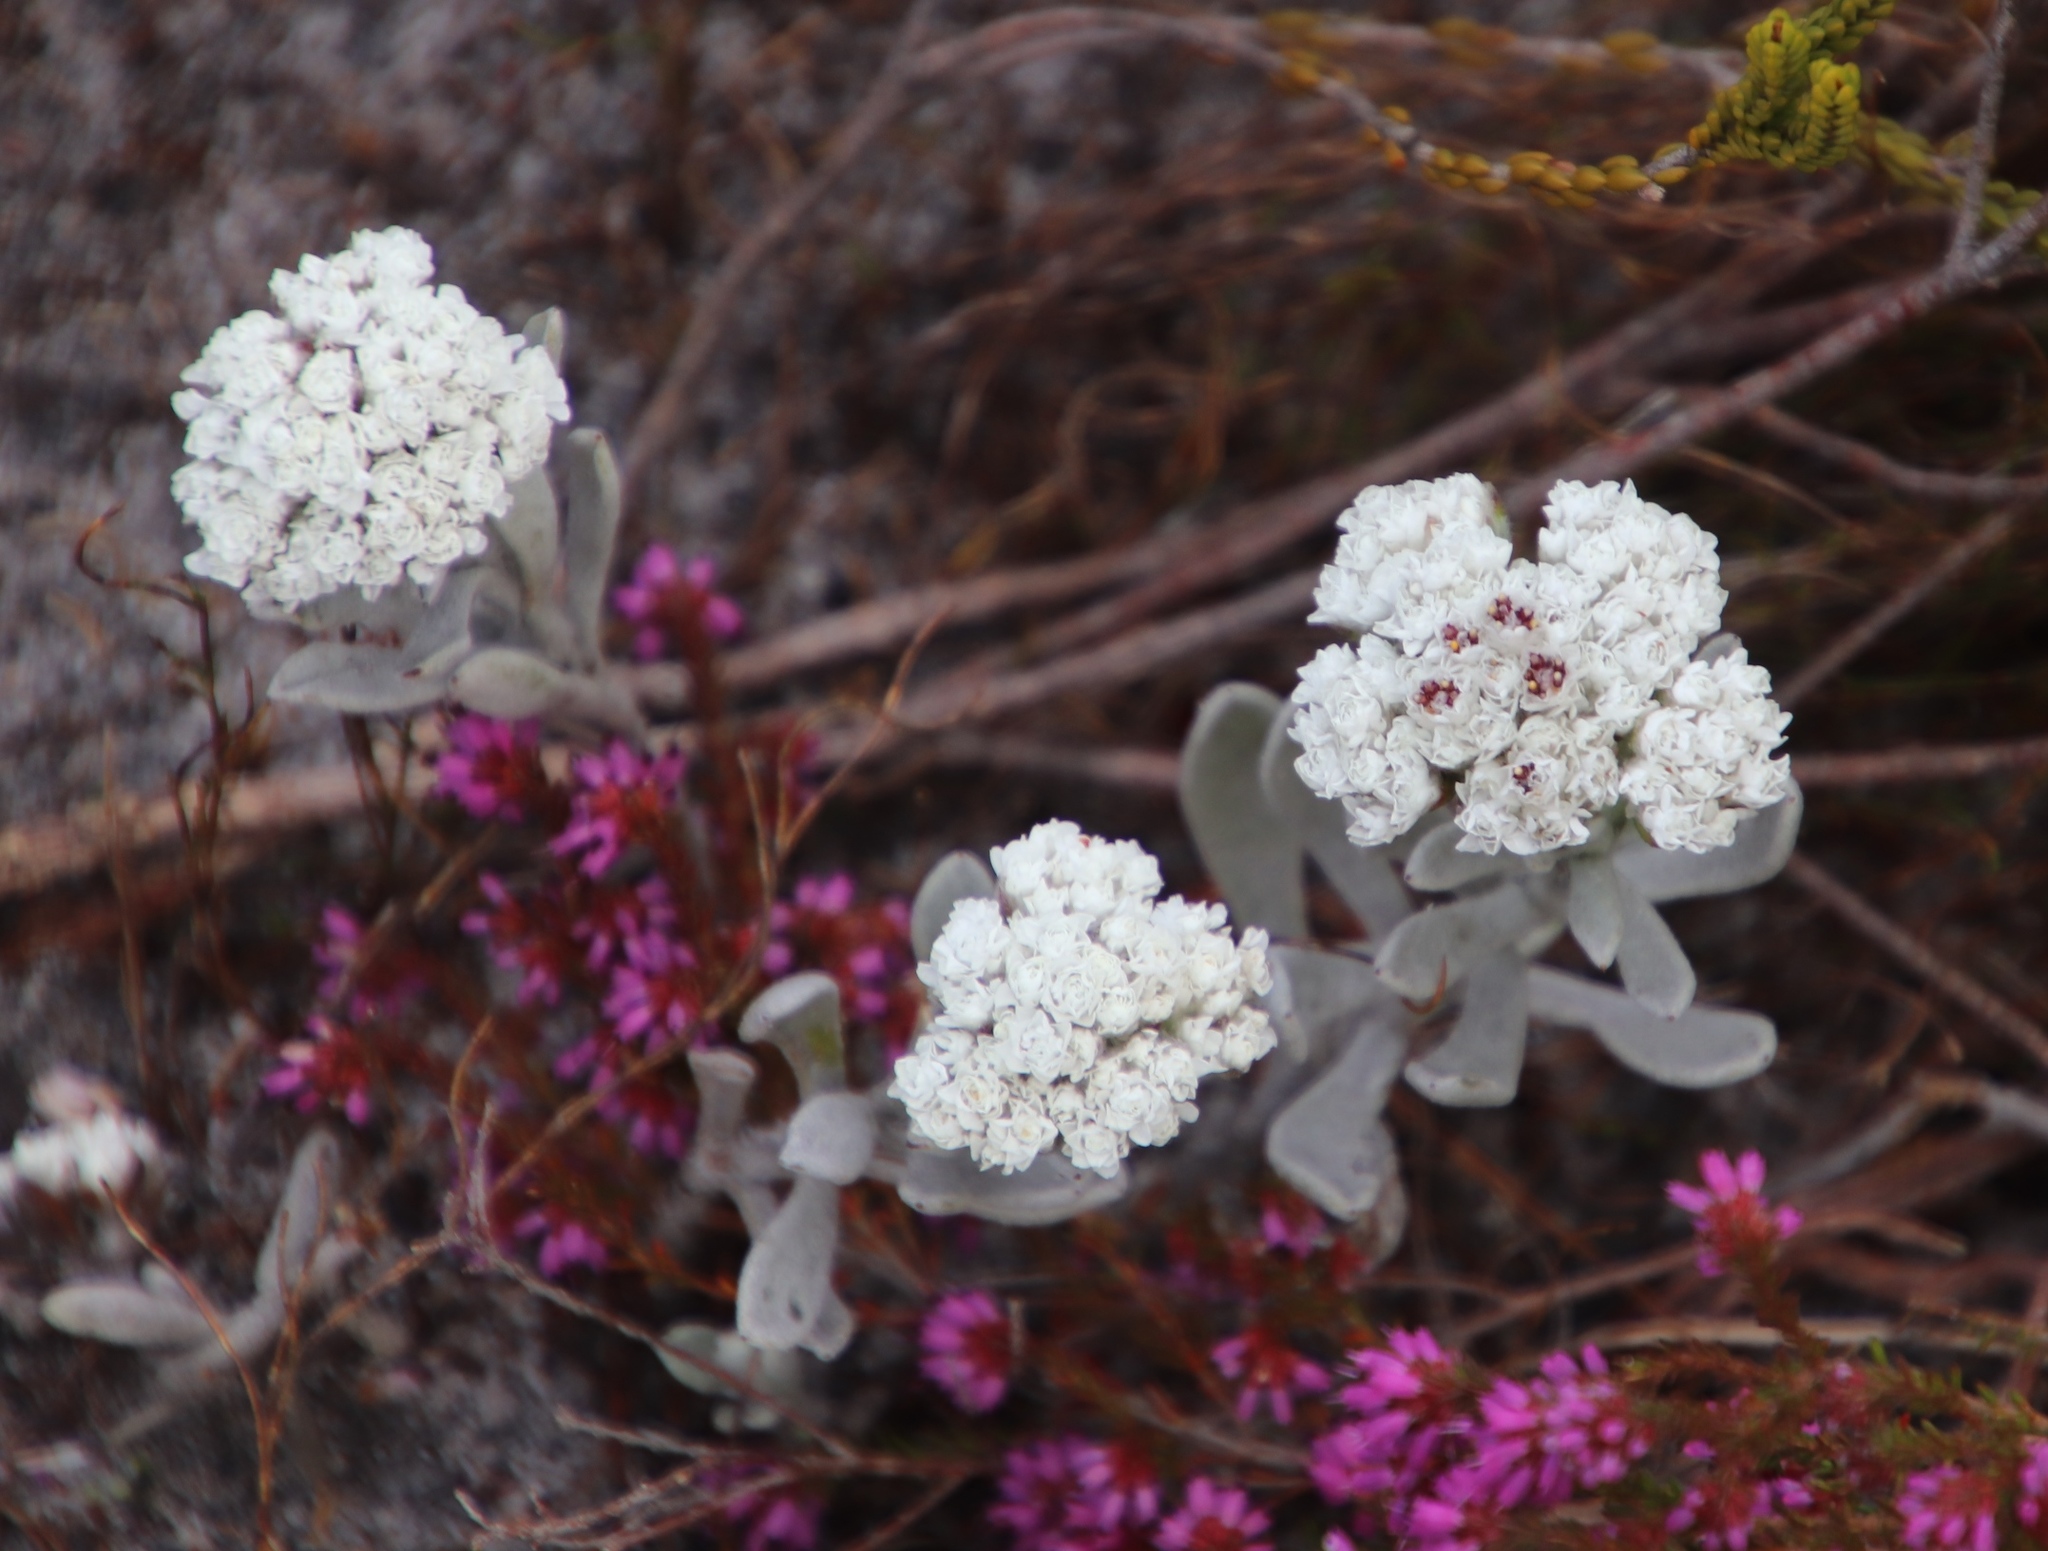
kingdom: Plantae
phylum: Tracheophyta
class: Magnoliopsida
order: Asterales
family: Asteraceae
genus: Petalacte
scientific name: Petalacte coronata
